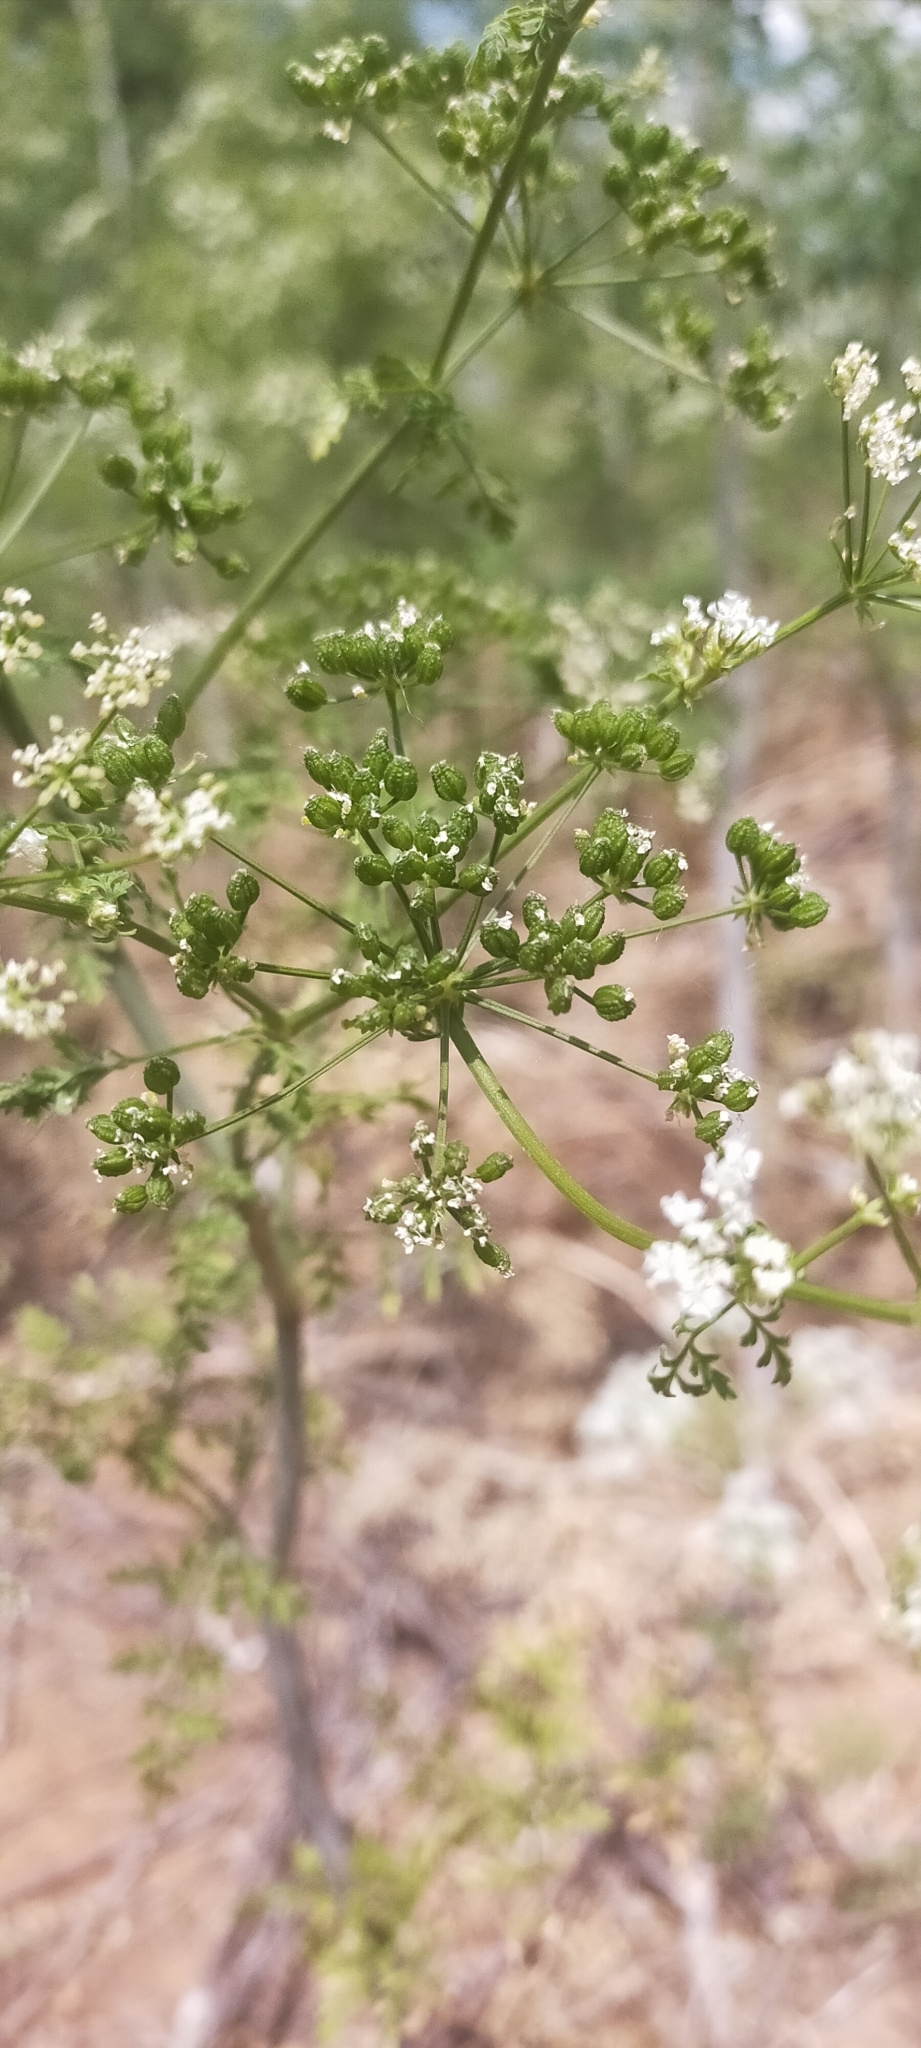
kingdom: Plantae
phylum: Tracheophyta
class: Magnoliopsida
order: Apiales
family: Apiaceae
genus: Conium
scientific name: Conium maculatum
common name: Hemlock
